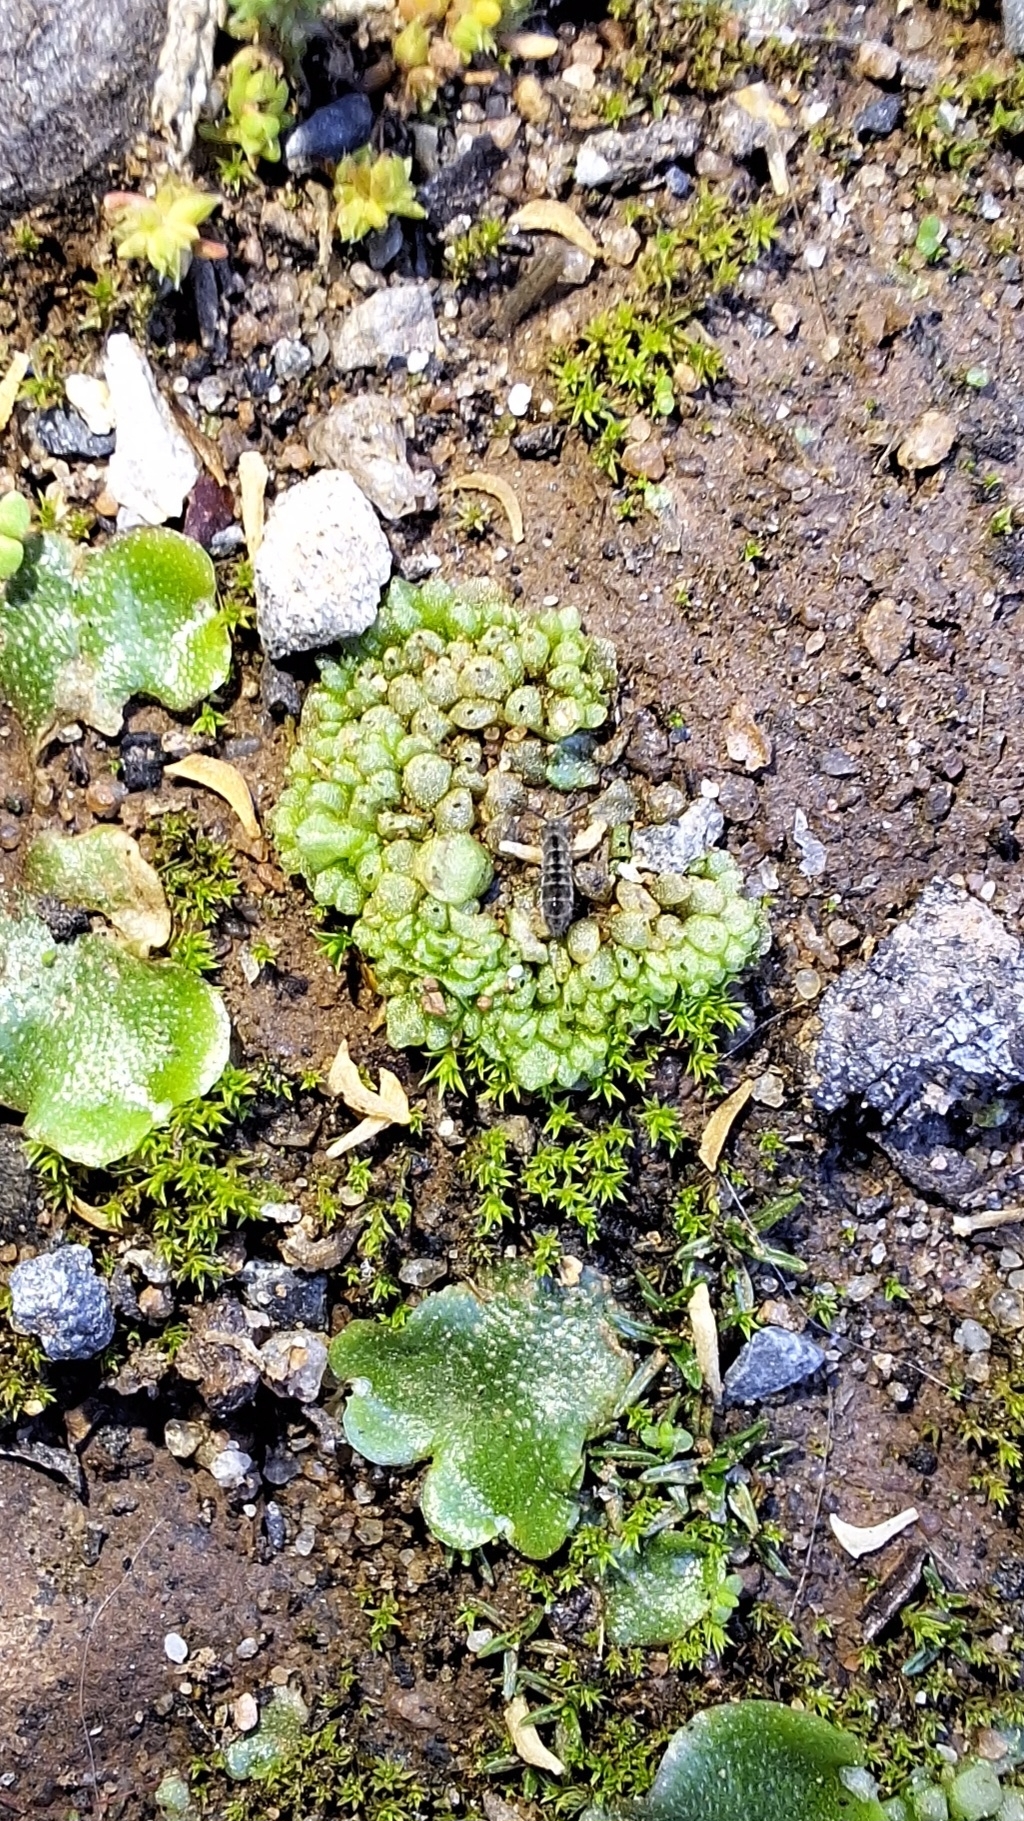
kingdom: Plantae
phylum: Marchantiophyta
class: Marchantiopsida
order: Sphaerocarpales
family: Sphaerocarpaceae
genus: Sphaerocarpos
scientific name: Sphaerocarpos texanus
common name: Texas balloonwort
